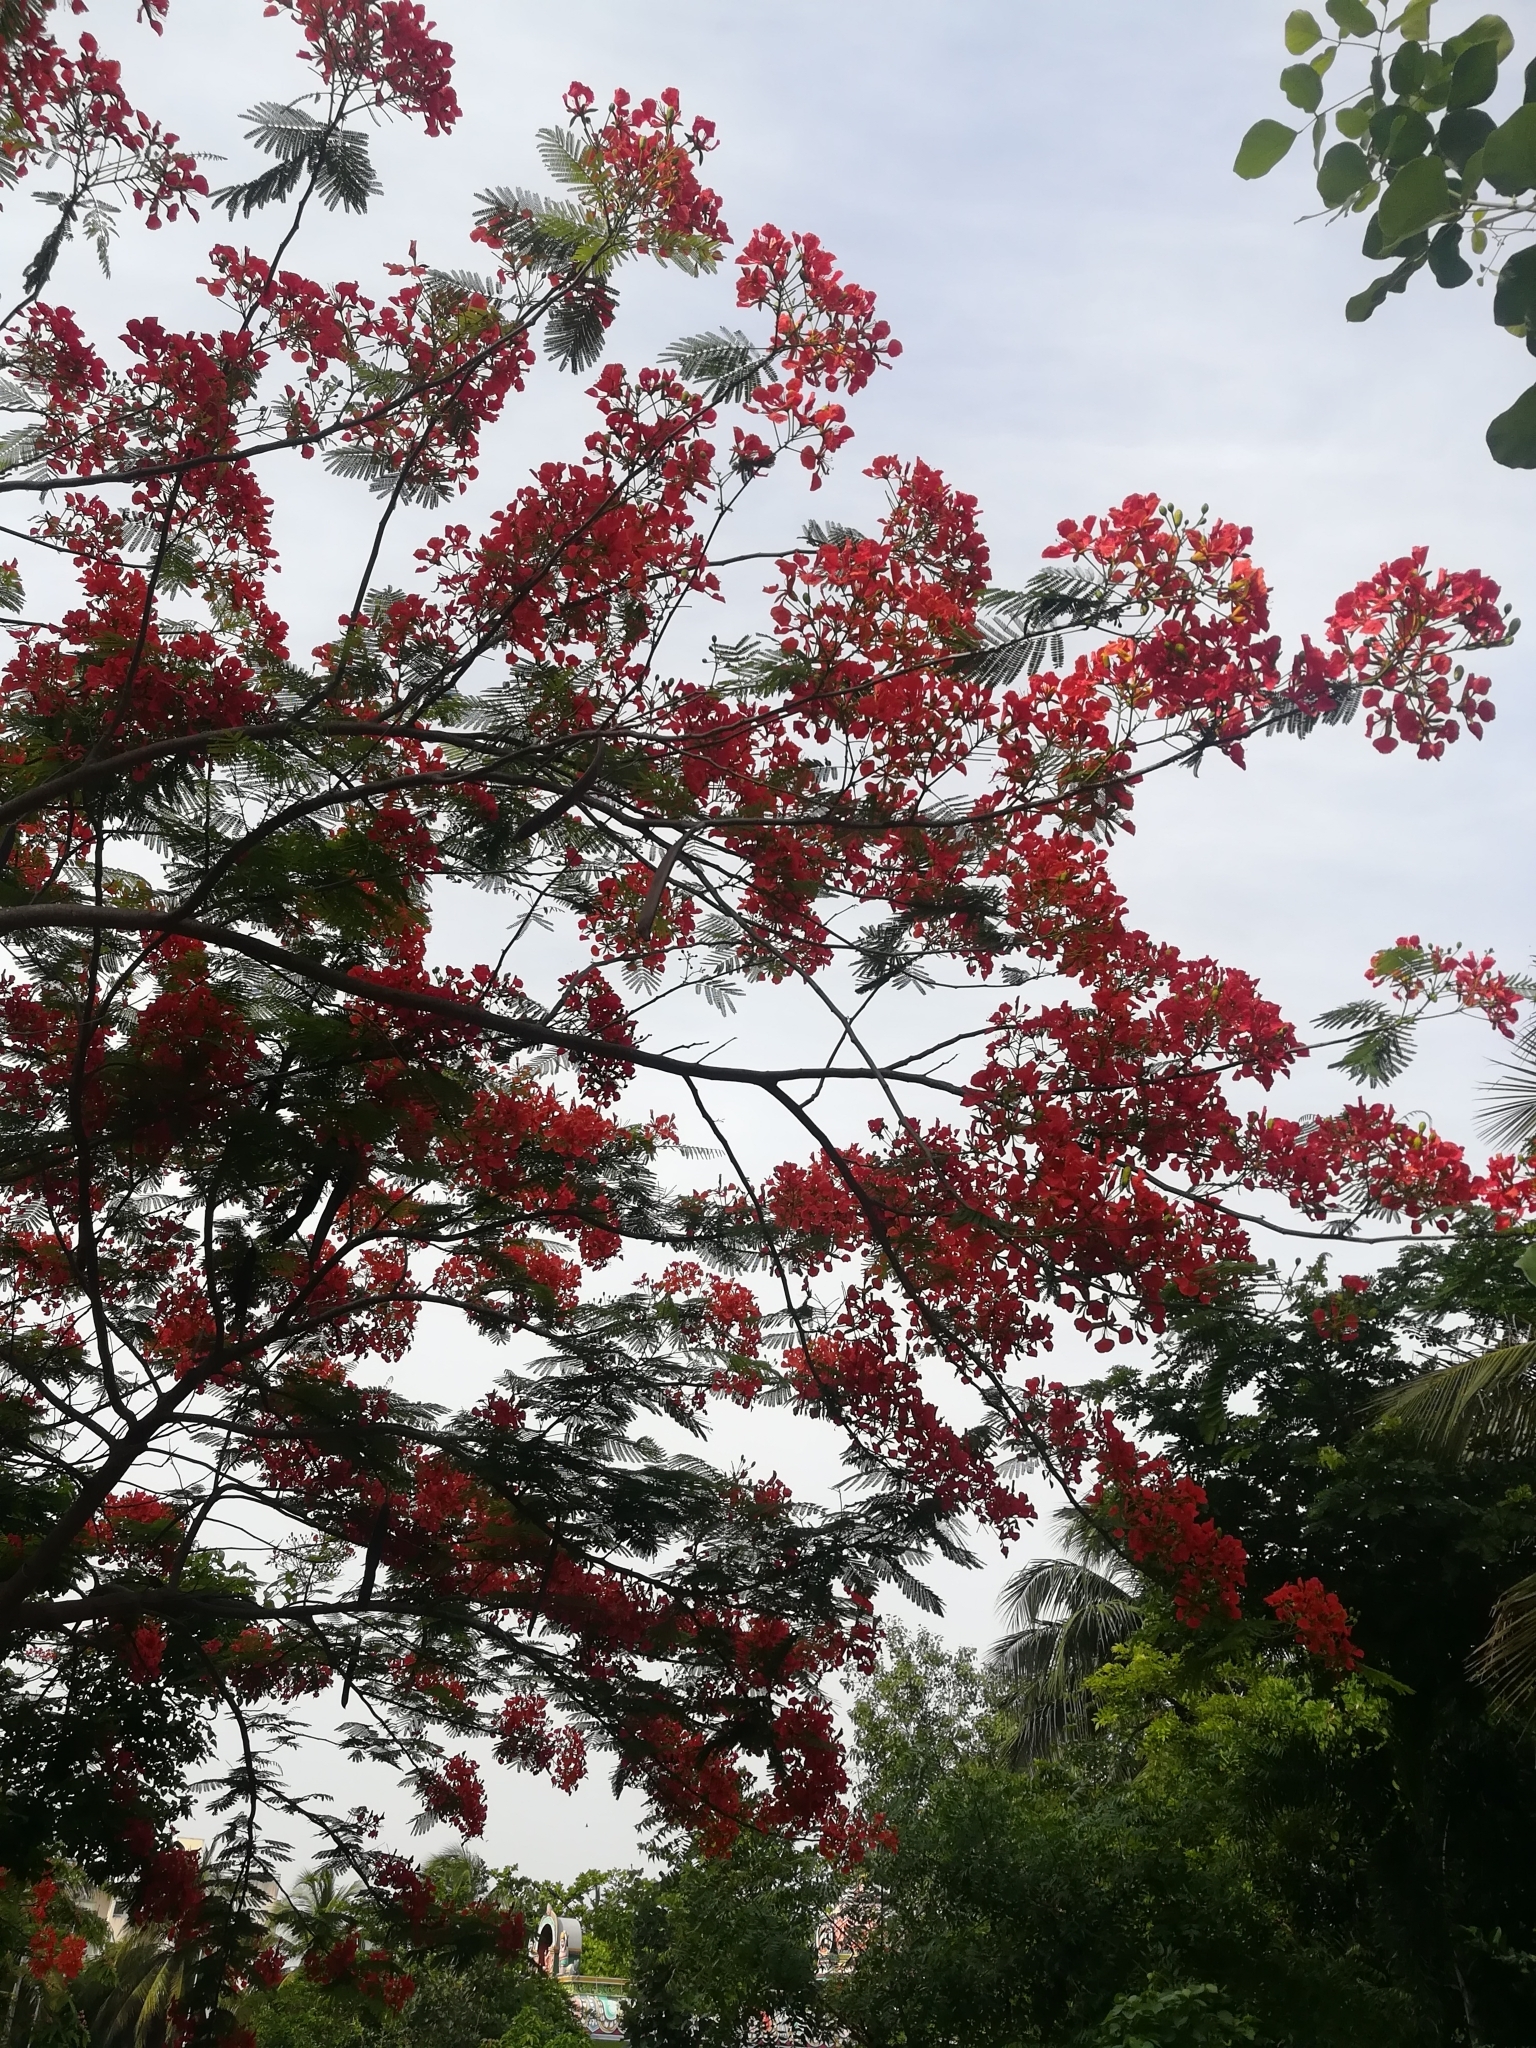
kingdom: Plantae
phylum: Tracheophyta
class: Magnoliopsida
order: Fabales
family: Fabaceae
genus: Delonix
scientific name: Delonix regia
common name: Royal poinciana
